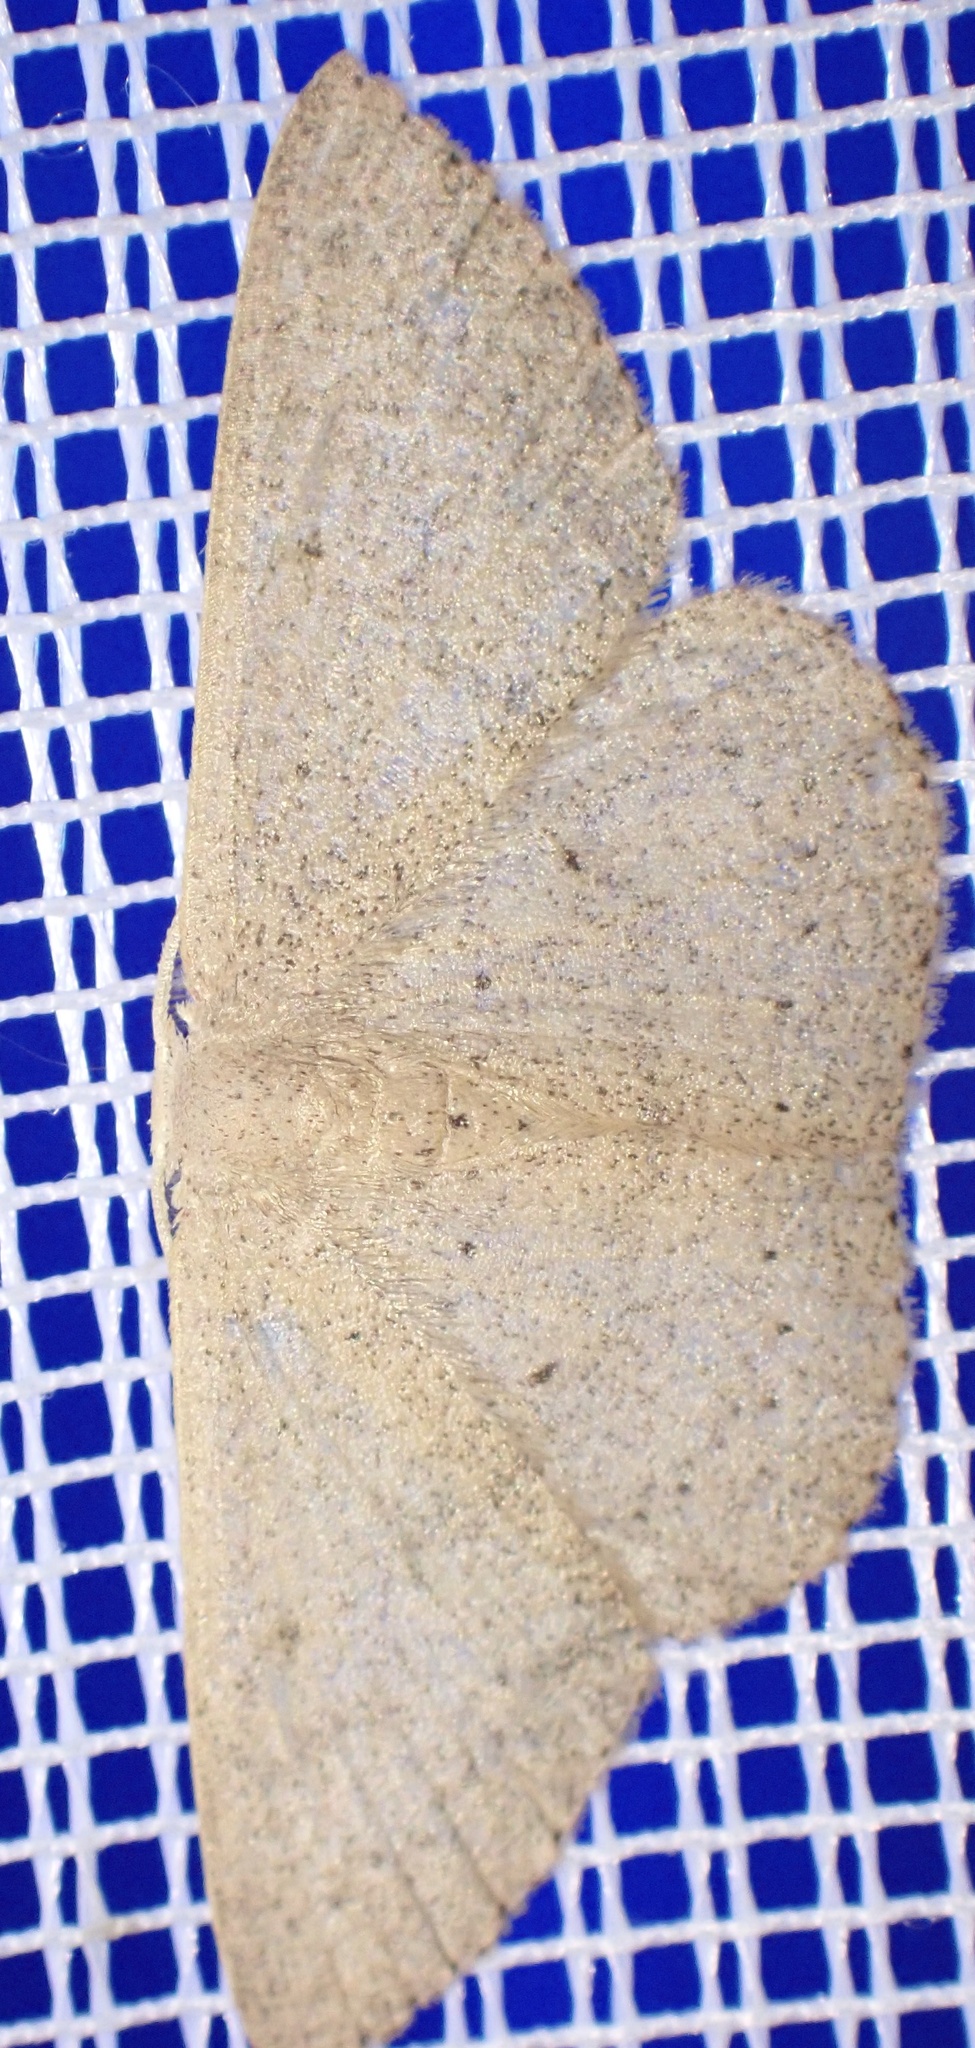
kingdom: Animalia
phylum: Arthropoda
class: Insecta
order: Lepidoptera
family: Geometridae
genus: Cyclophora
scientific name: Cyclophora obstataria
